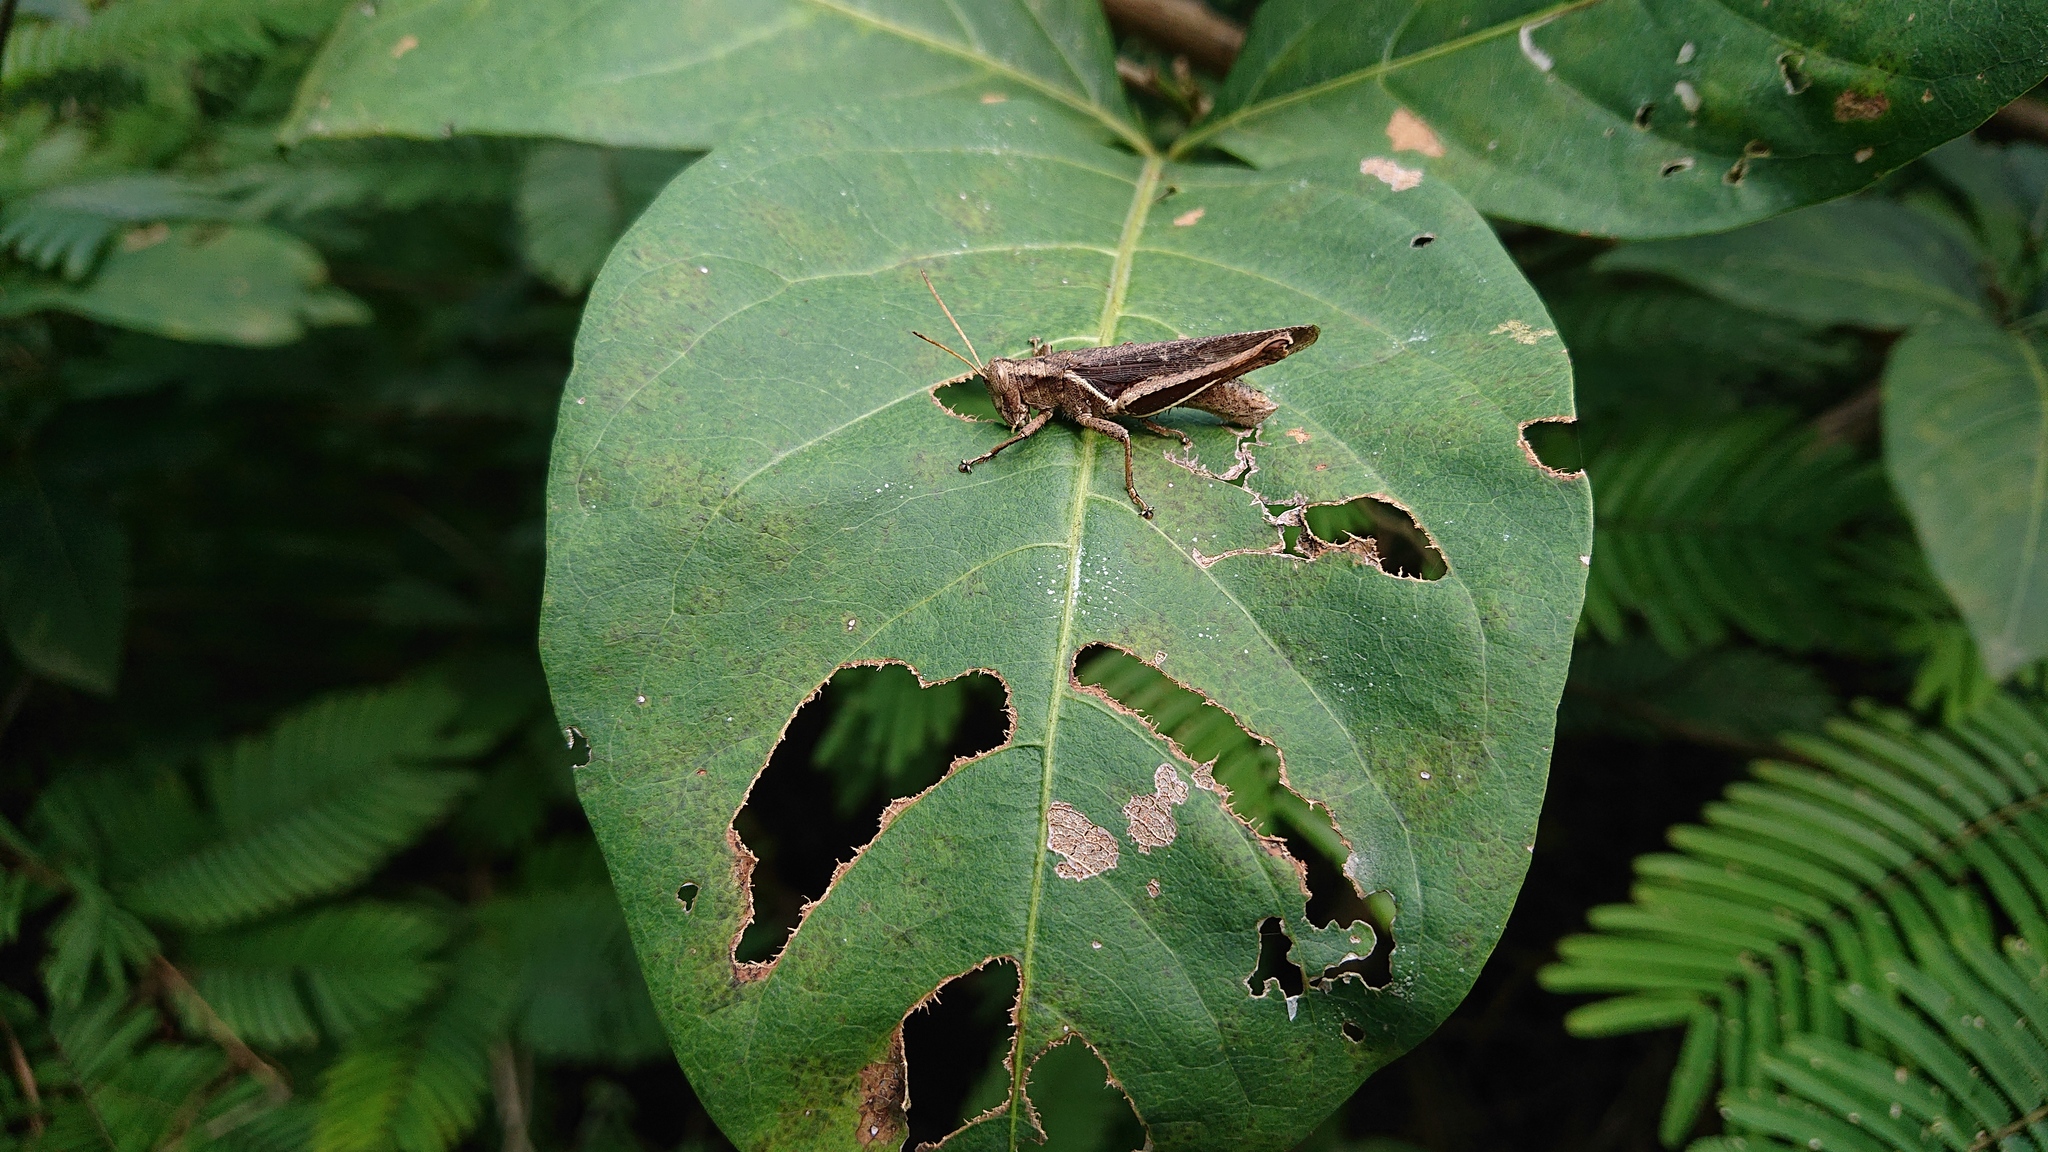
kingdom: Animalia
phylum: Arthropoda
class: Insecta
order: Orthoptera
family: Acrididae
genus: Abracris
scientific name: Abracris flavolineata
